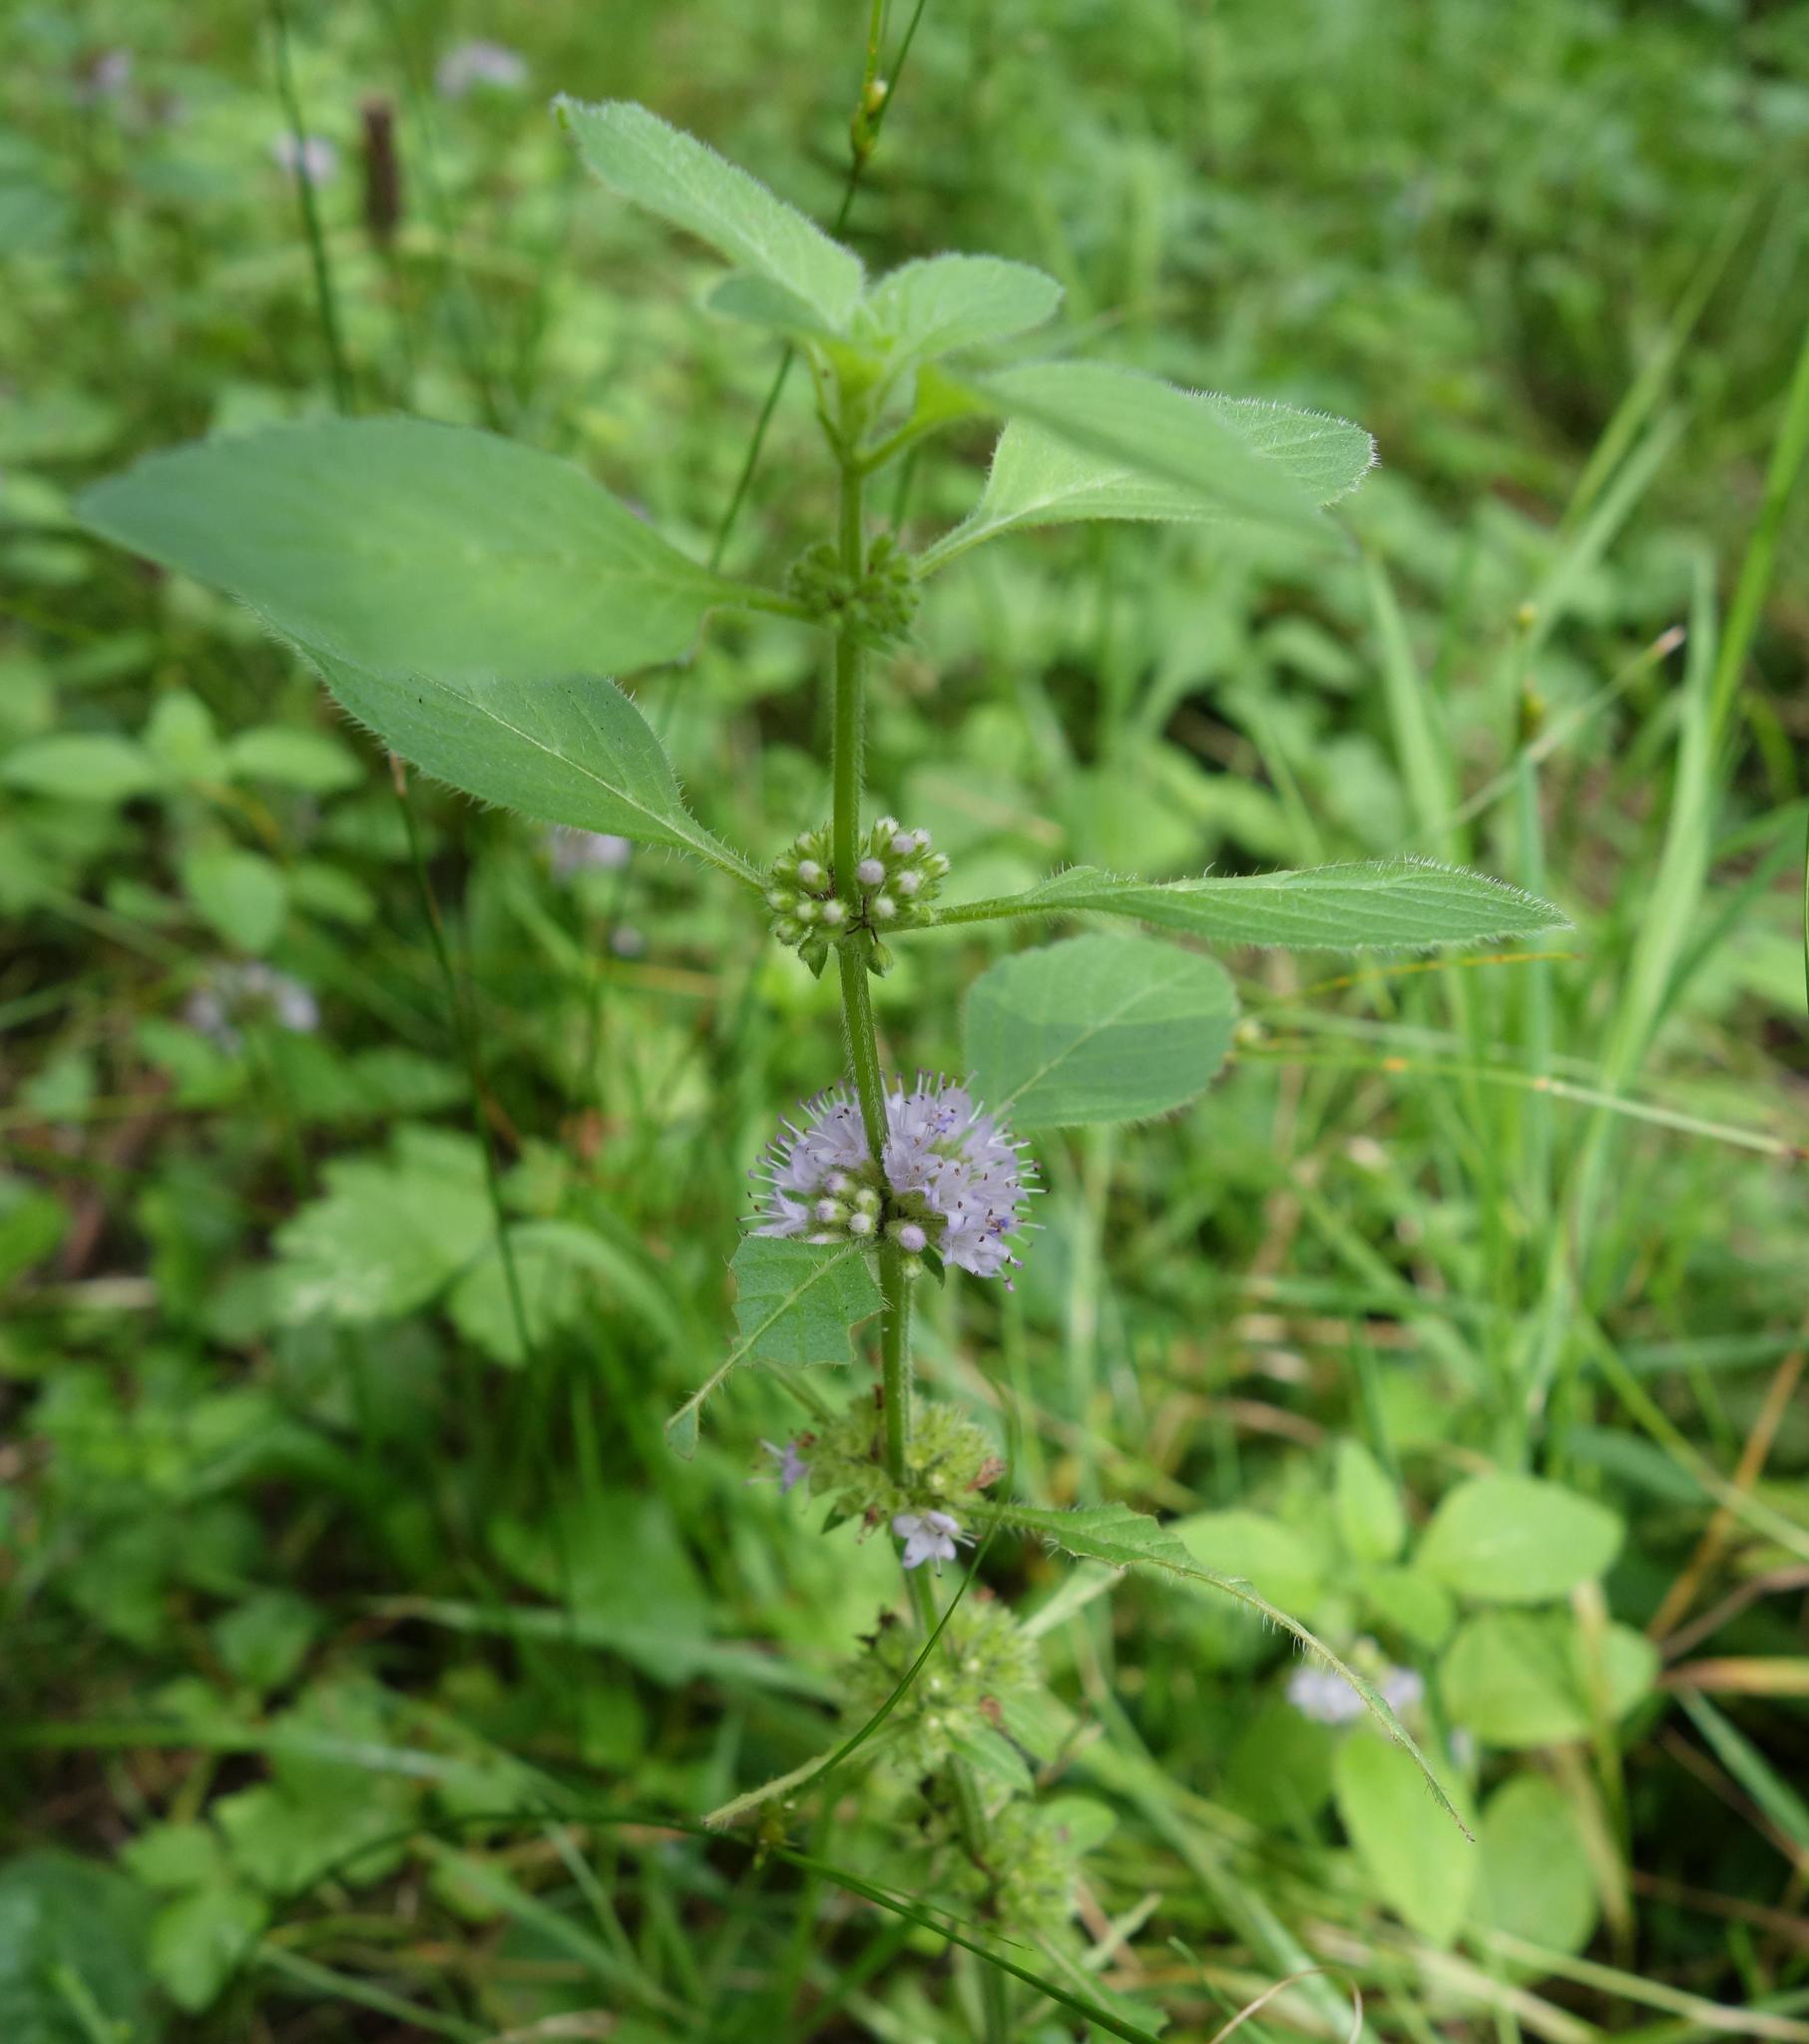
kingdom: Plantae
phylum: Tracheophyta
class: Magnoliopsida
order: Lamiales
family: Lamiaceae
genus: Mentha
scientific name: Mentha arvensis
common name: Corn mint
